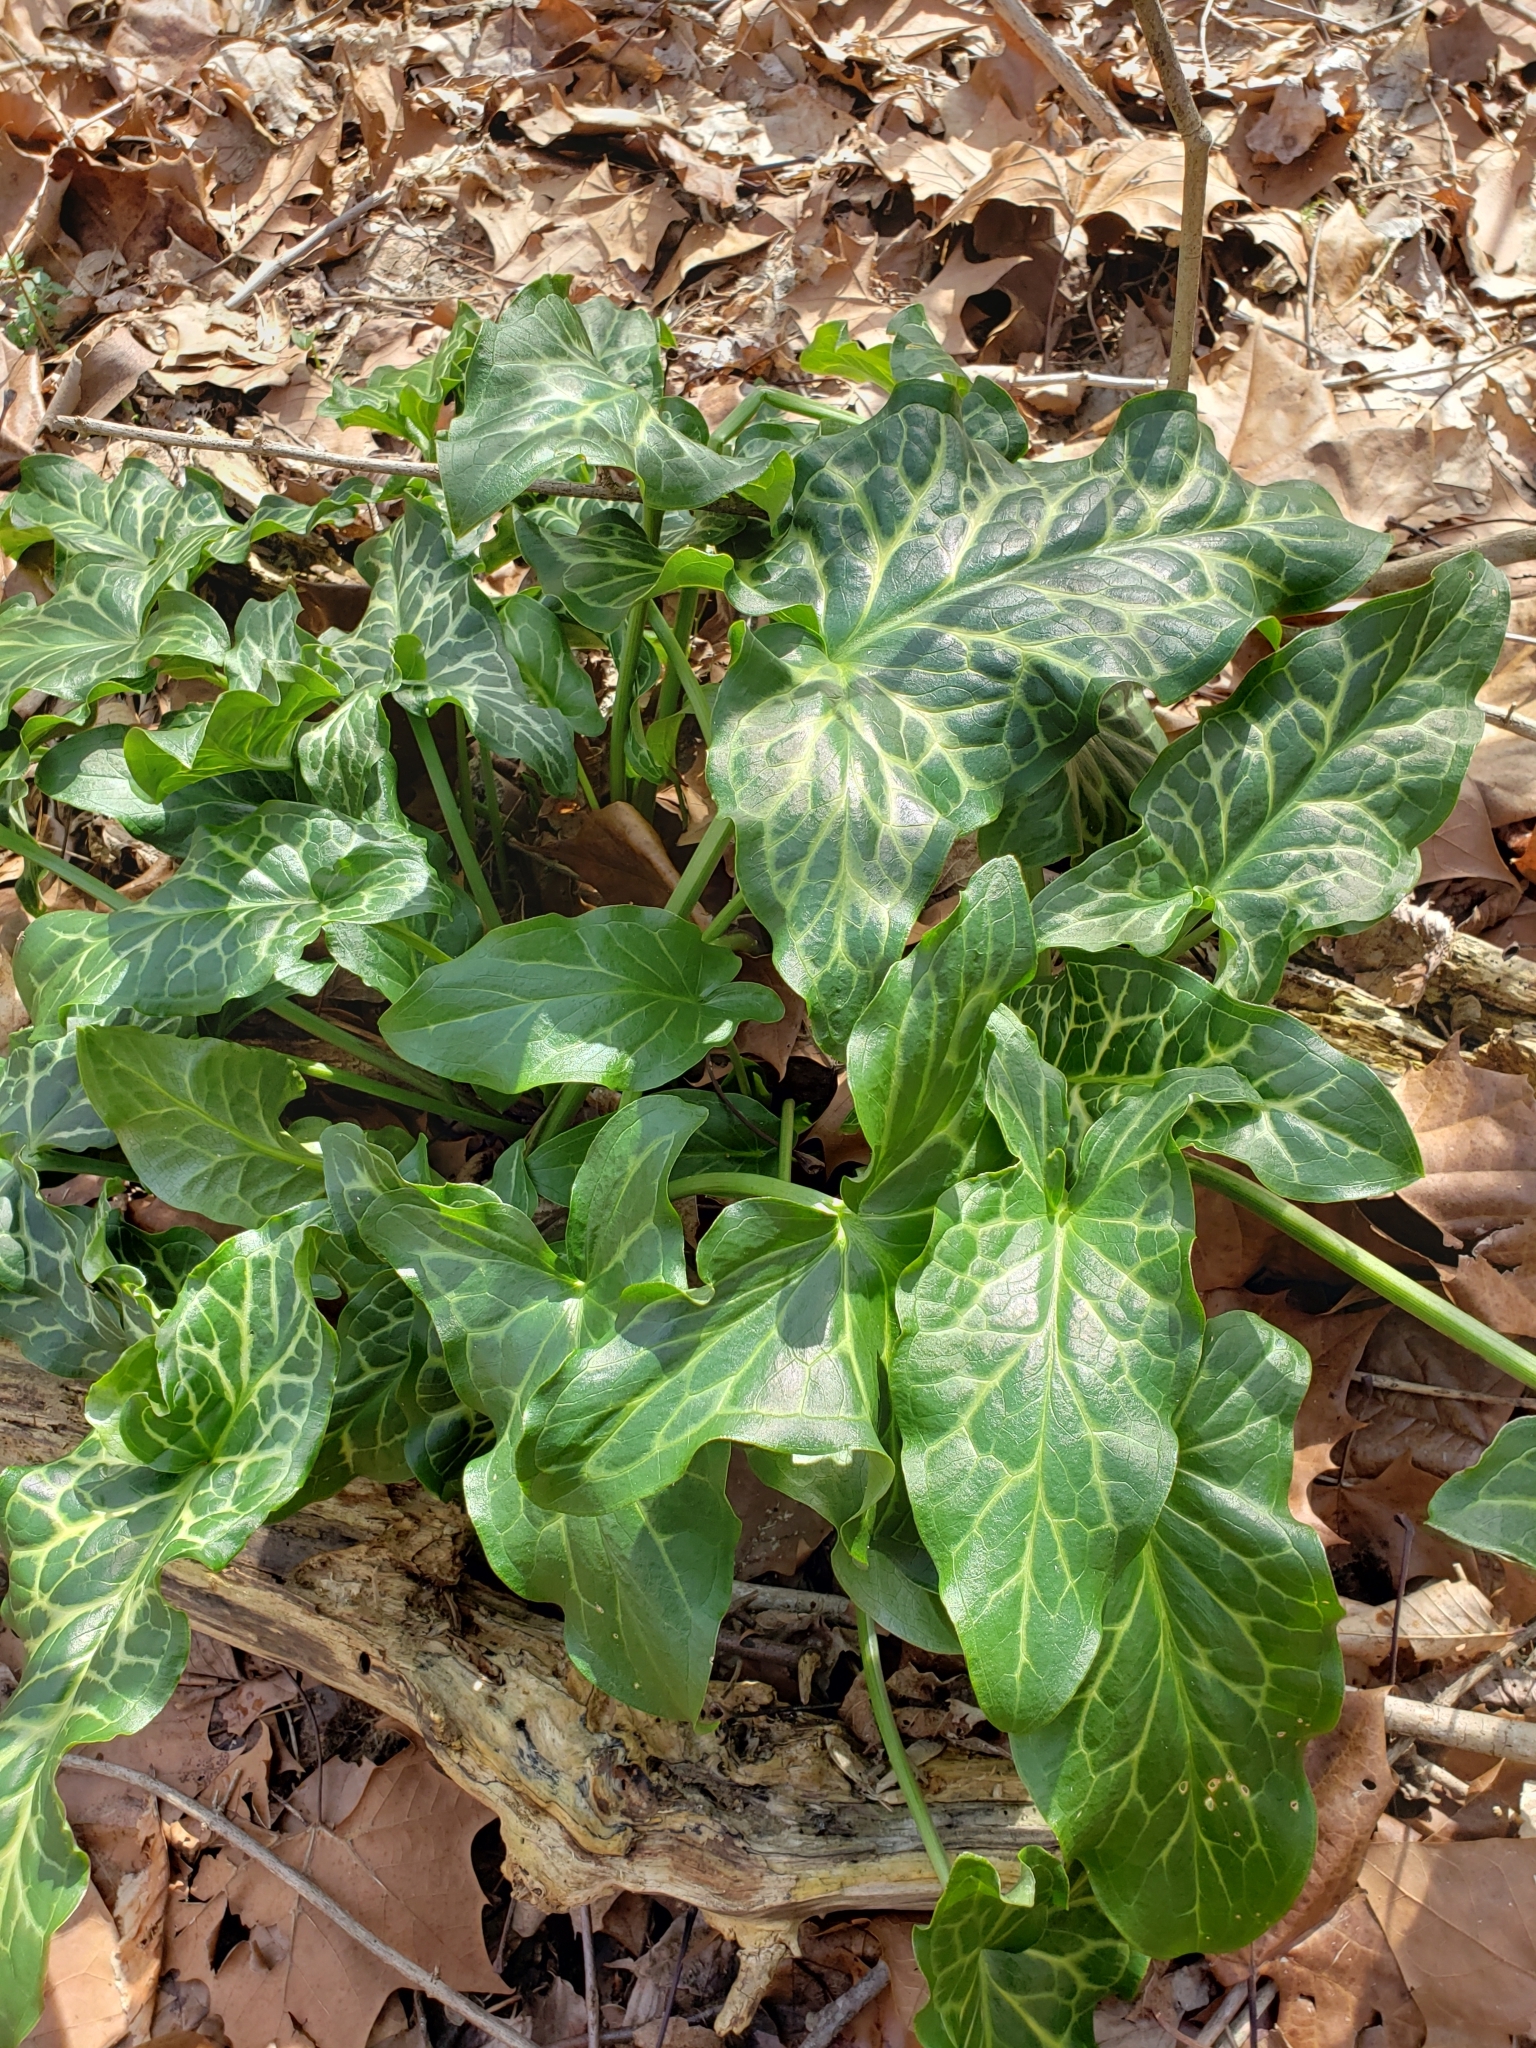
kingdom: Plantae
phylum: Tracheophyta
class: Liliopsida
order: Alismatales
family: Araceae
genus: Arum
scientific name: Arum italicum
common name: Italian lords-and-ladies
